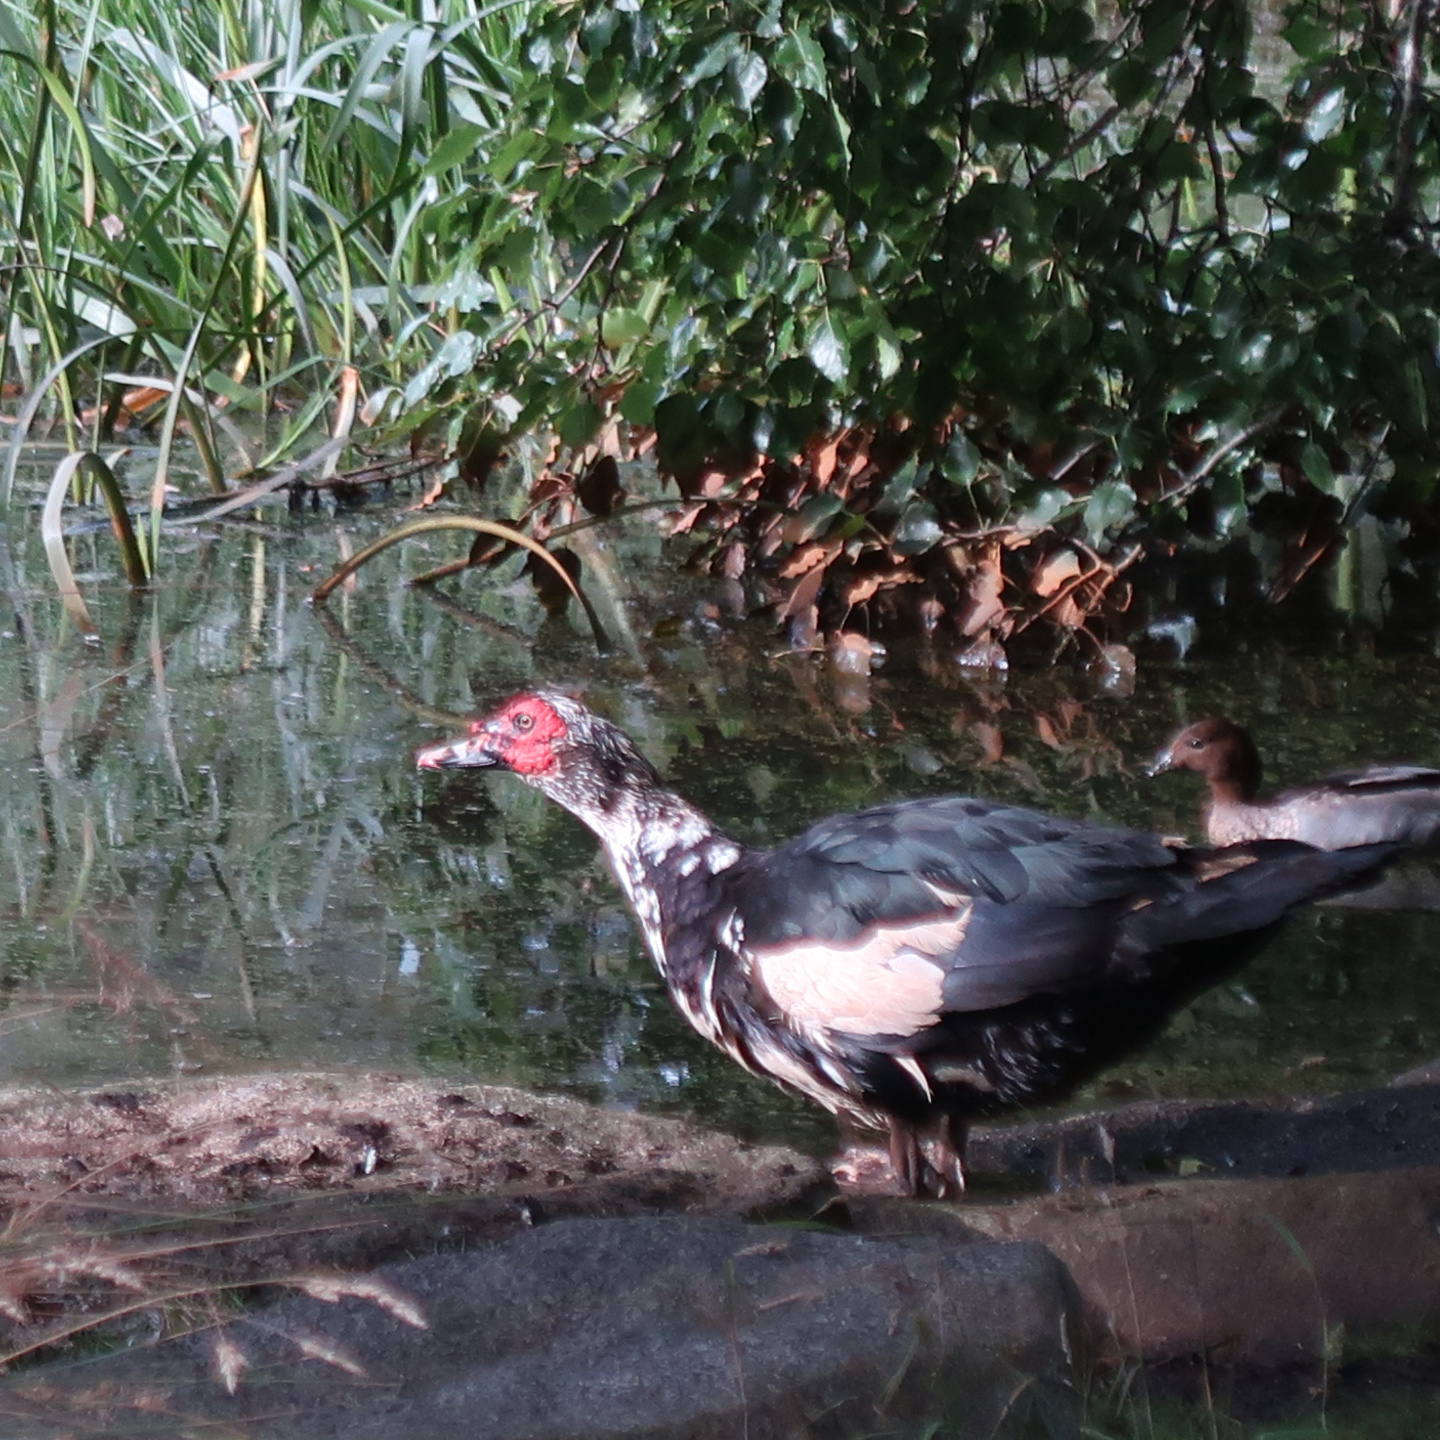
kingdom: Animalia
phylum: Chordata
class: Aves
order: Anseriformes
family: Anatidae
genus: Cairina
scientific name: Cairina moschata
